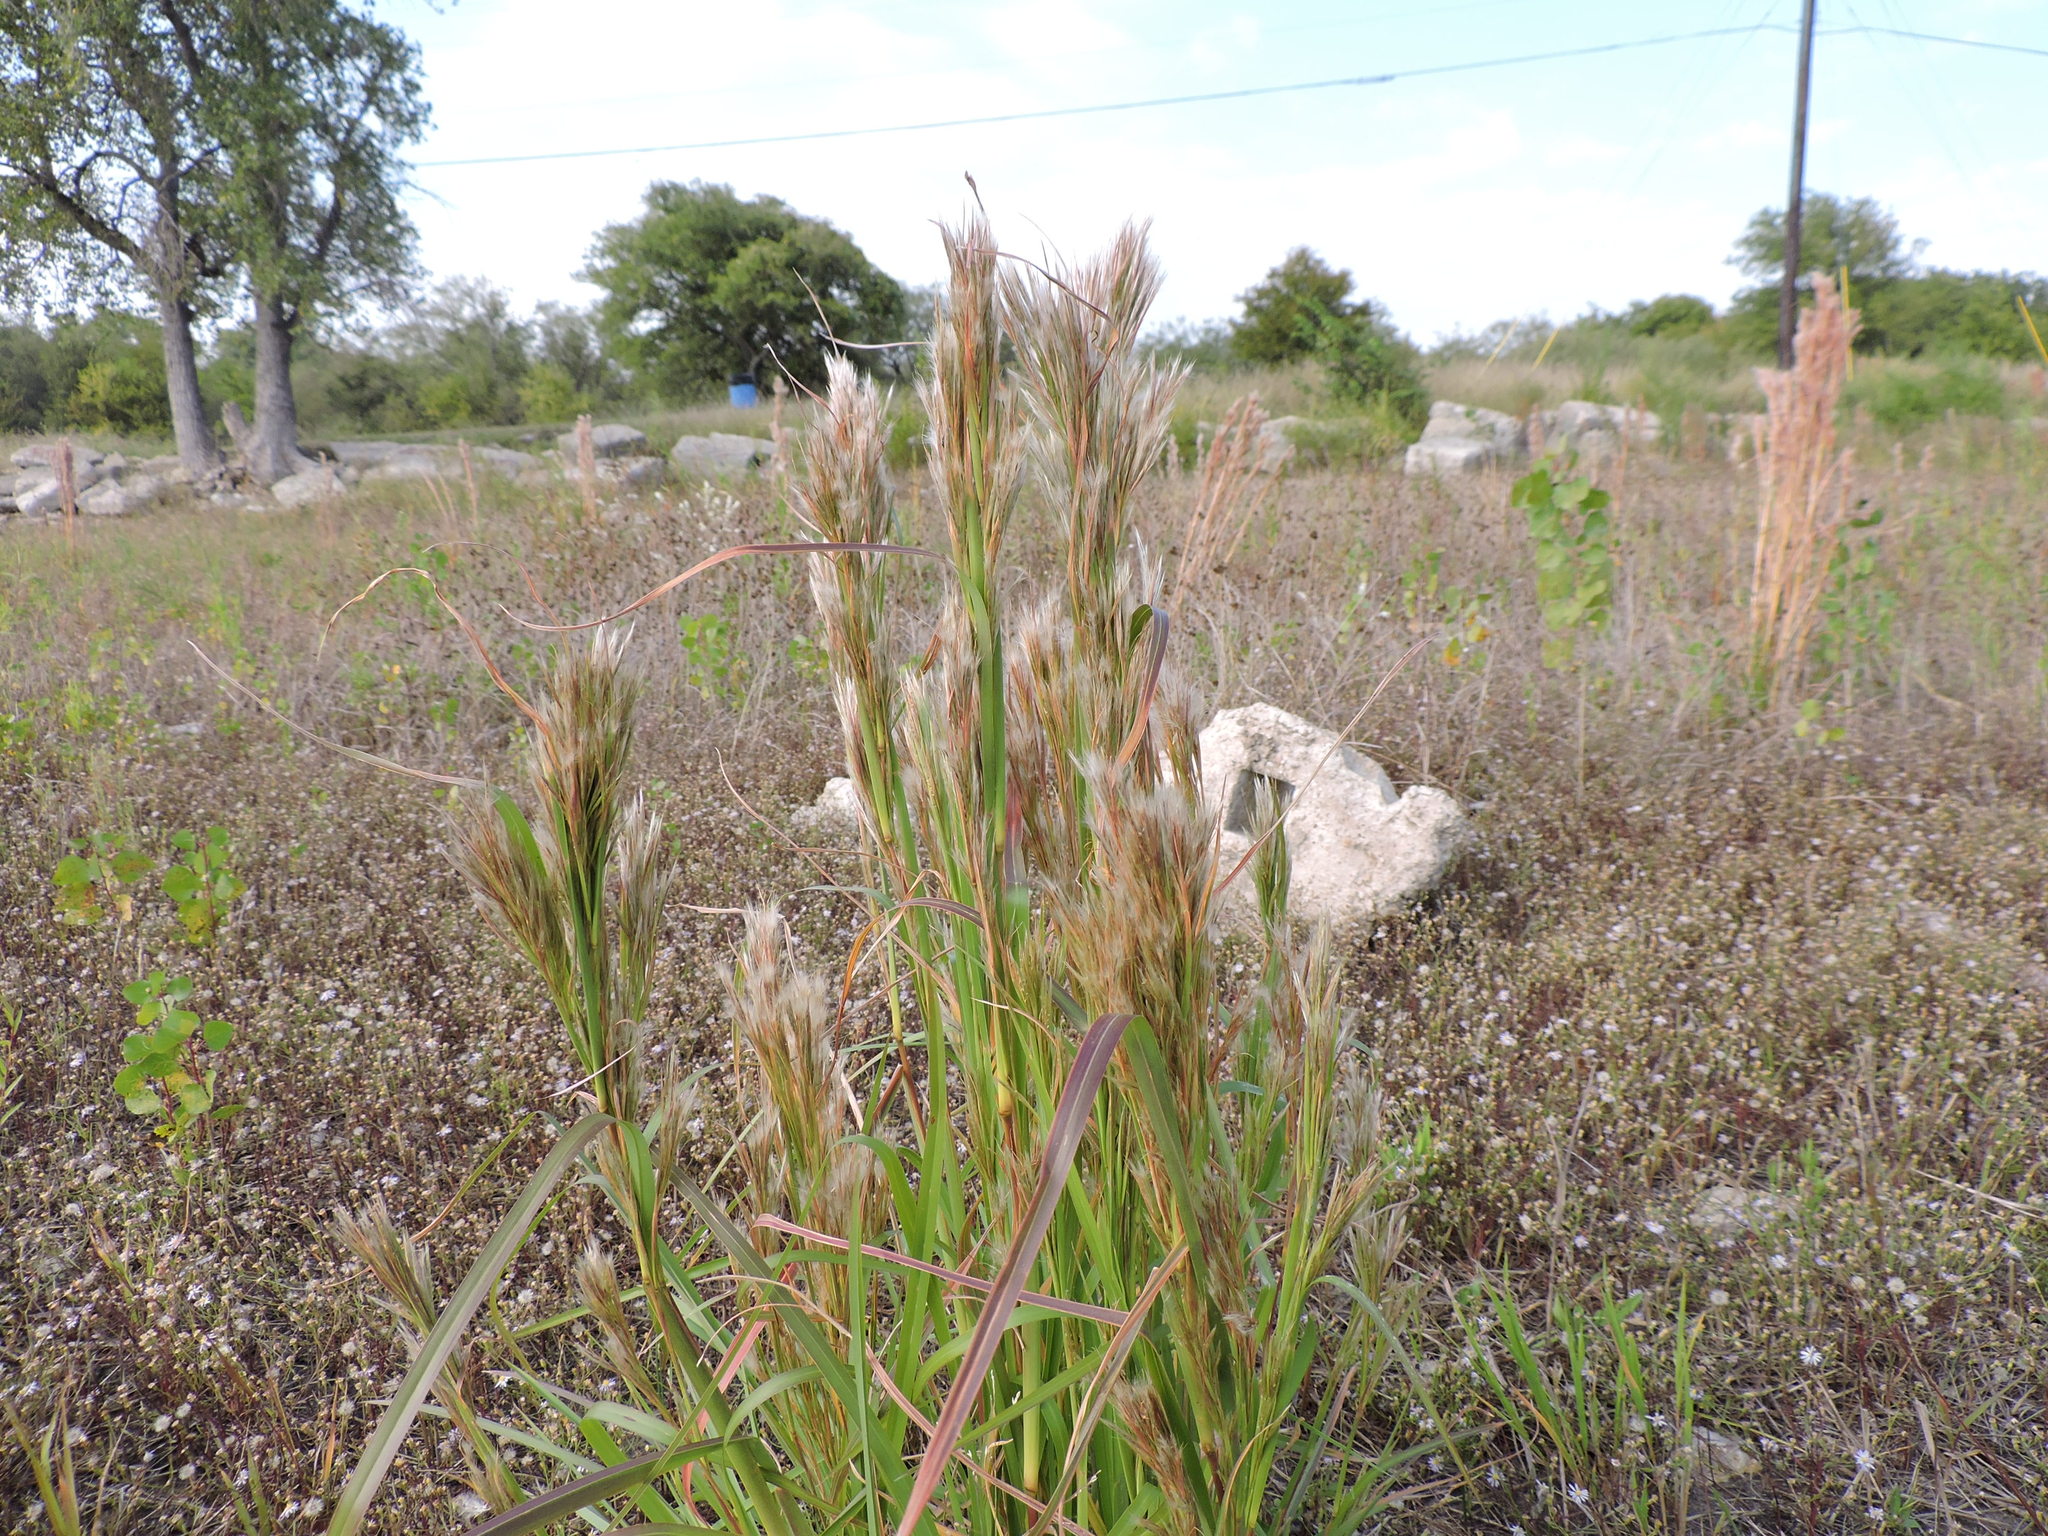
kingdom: Plantae
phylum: Tracheophyta
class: Liliopsida
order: Poales
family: Poaceae
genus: Andropogon
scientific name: Andropogon tenuispatheus
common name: Bushy bluestem
